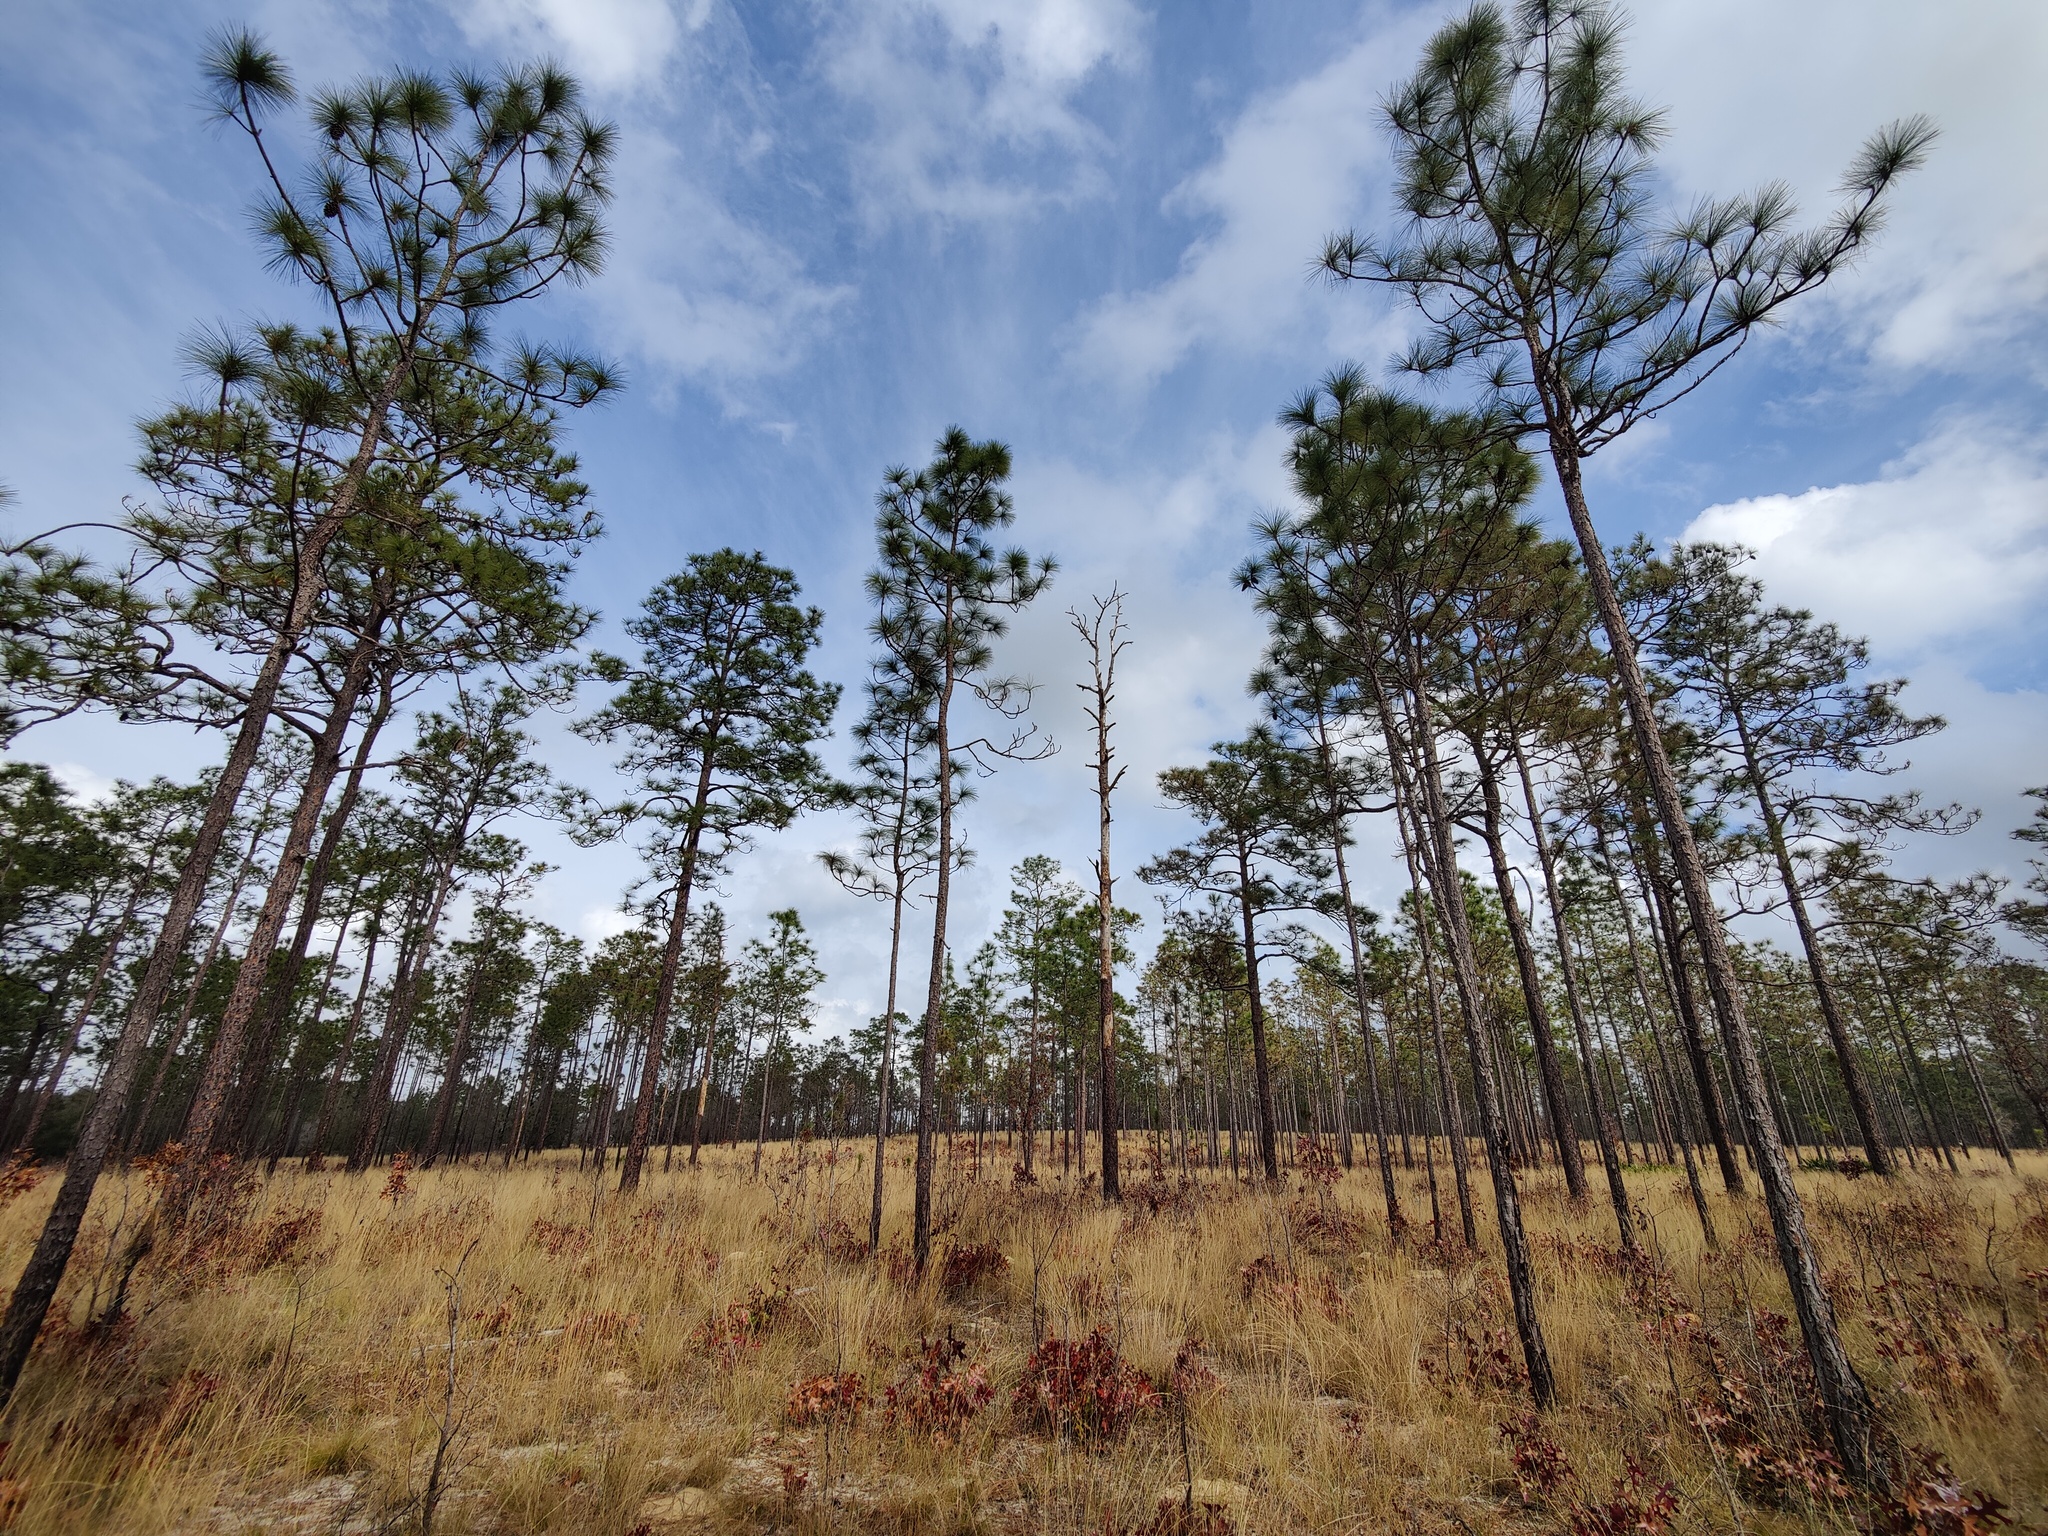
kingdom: Plantae
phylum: Tracheophyta
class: Pinopsida
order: Pinales
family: Pinaceae
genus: Pinus
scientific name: Pinus palustris
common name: Longleaf pine
